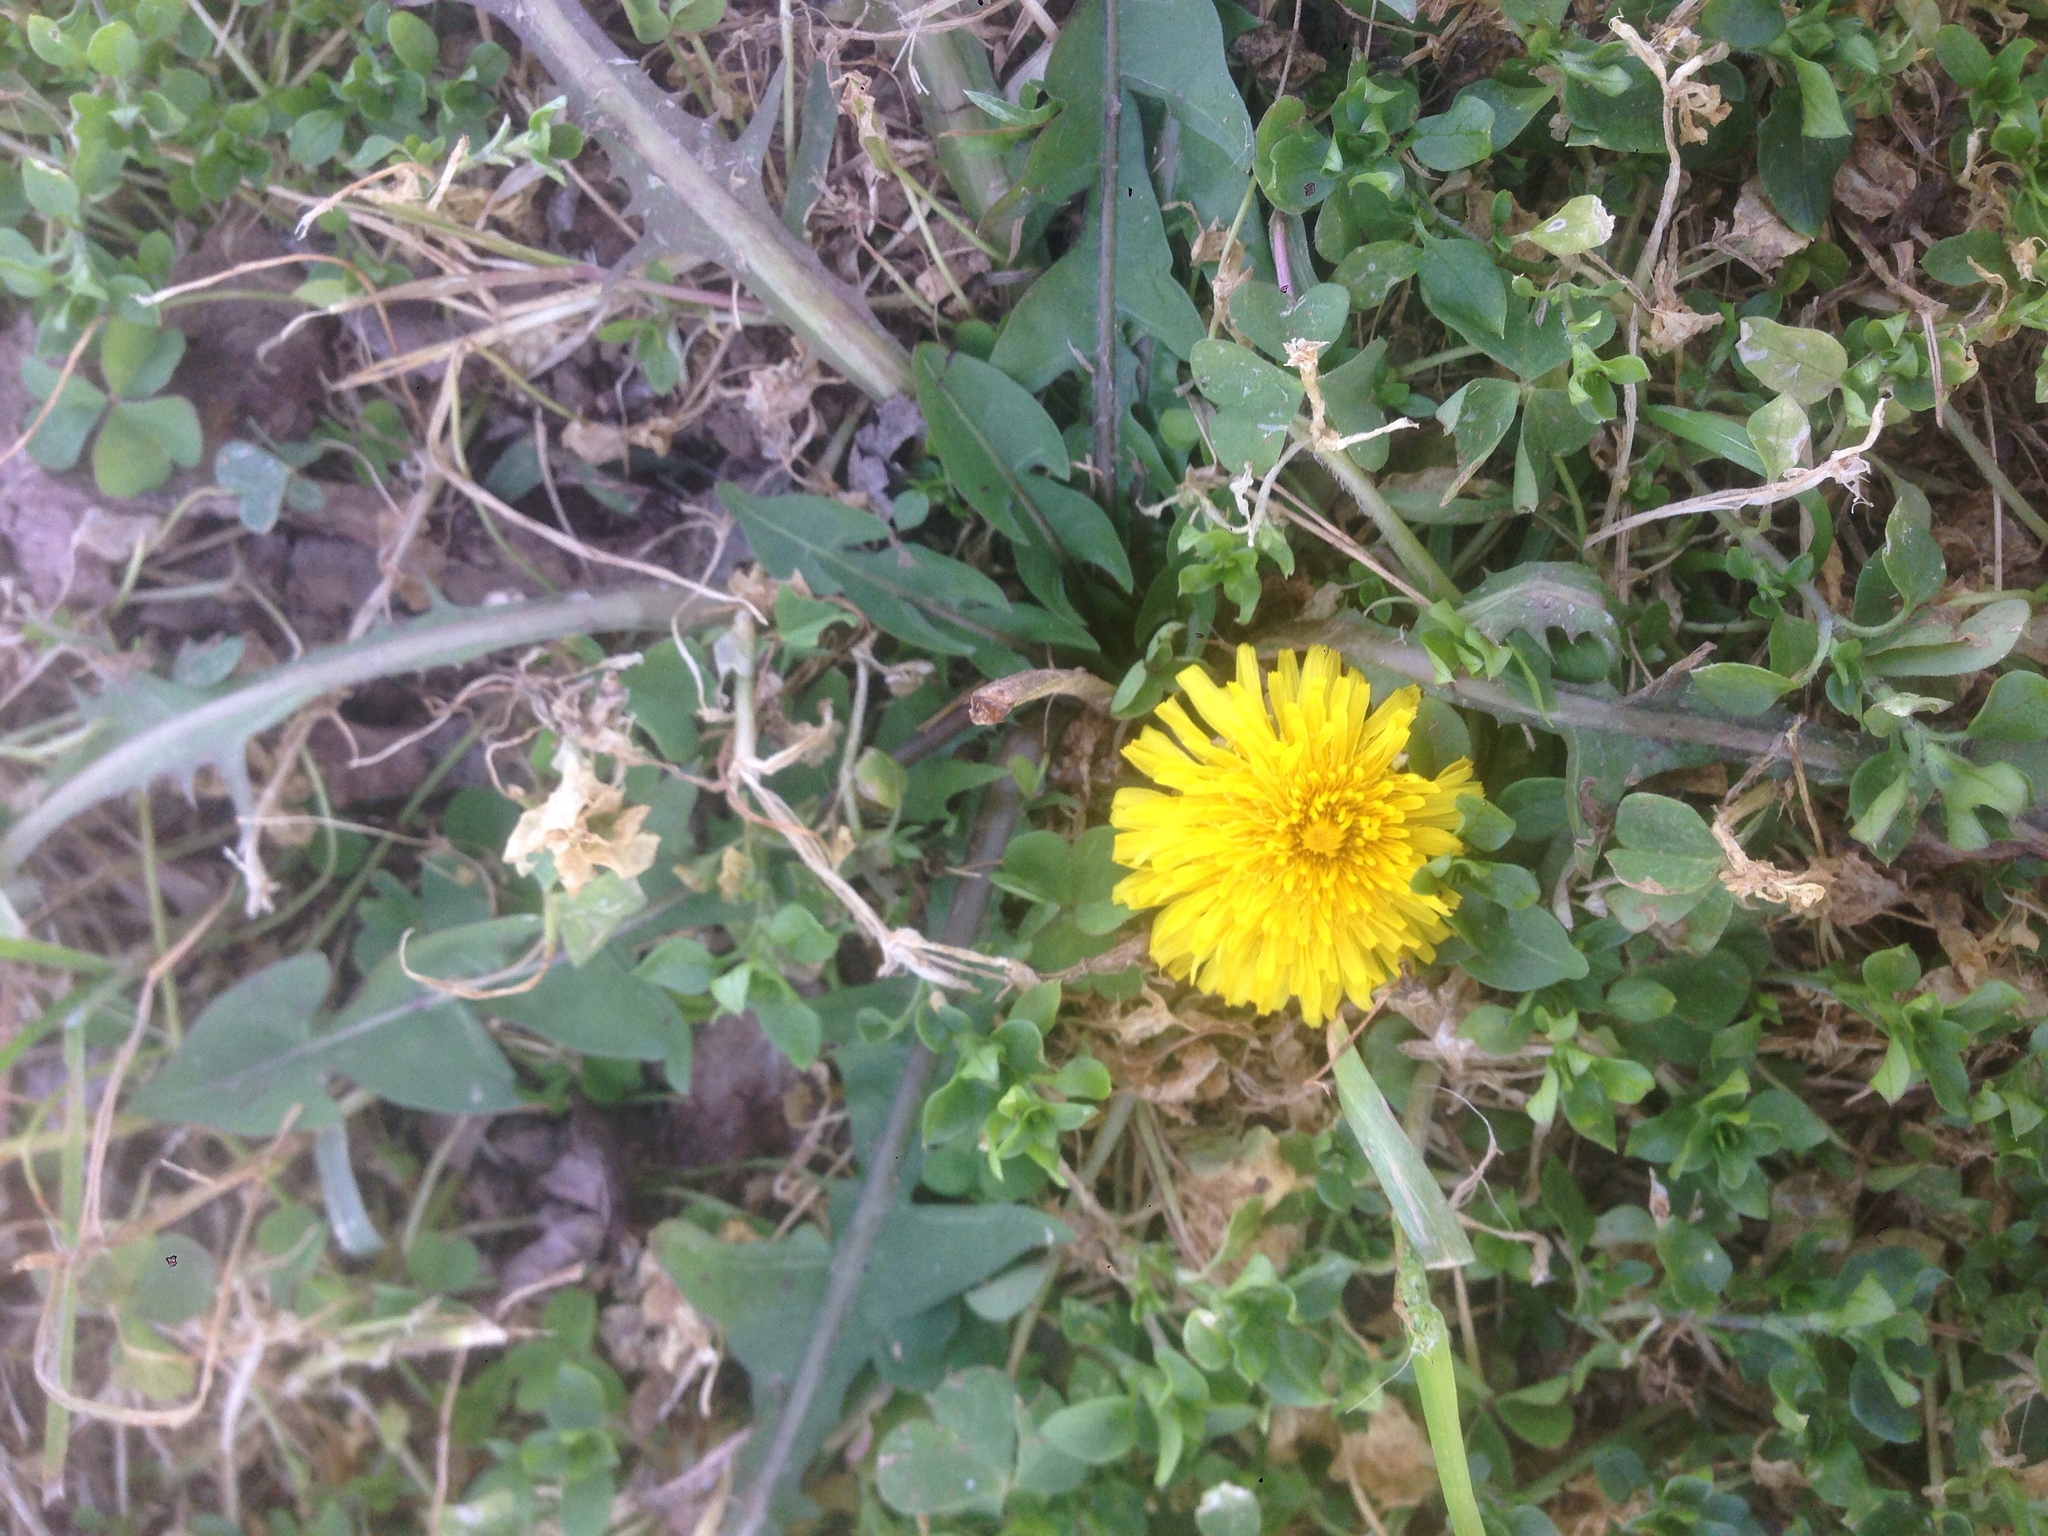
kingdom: Plantae
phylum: Tracheophyta
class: Magnoliopsida
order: Asterales
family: Asteraceae
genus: Taraxacum
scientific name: Taraxacum officinale
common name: Common dandelion
